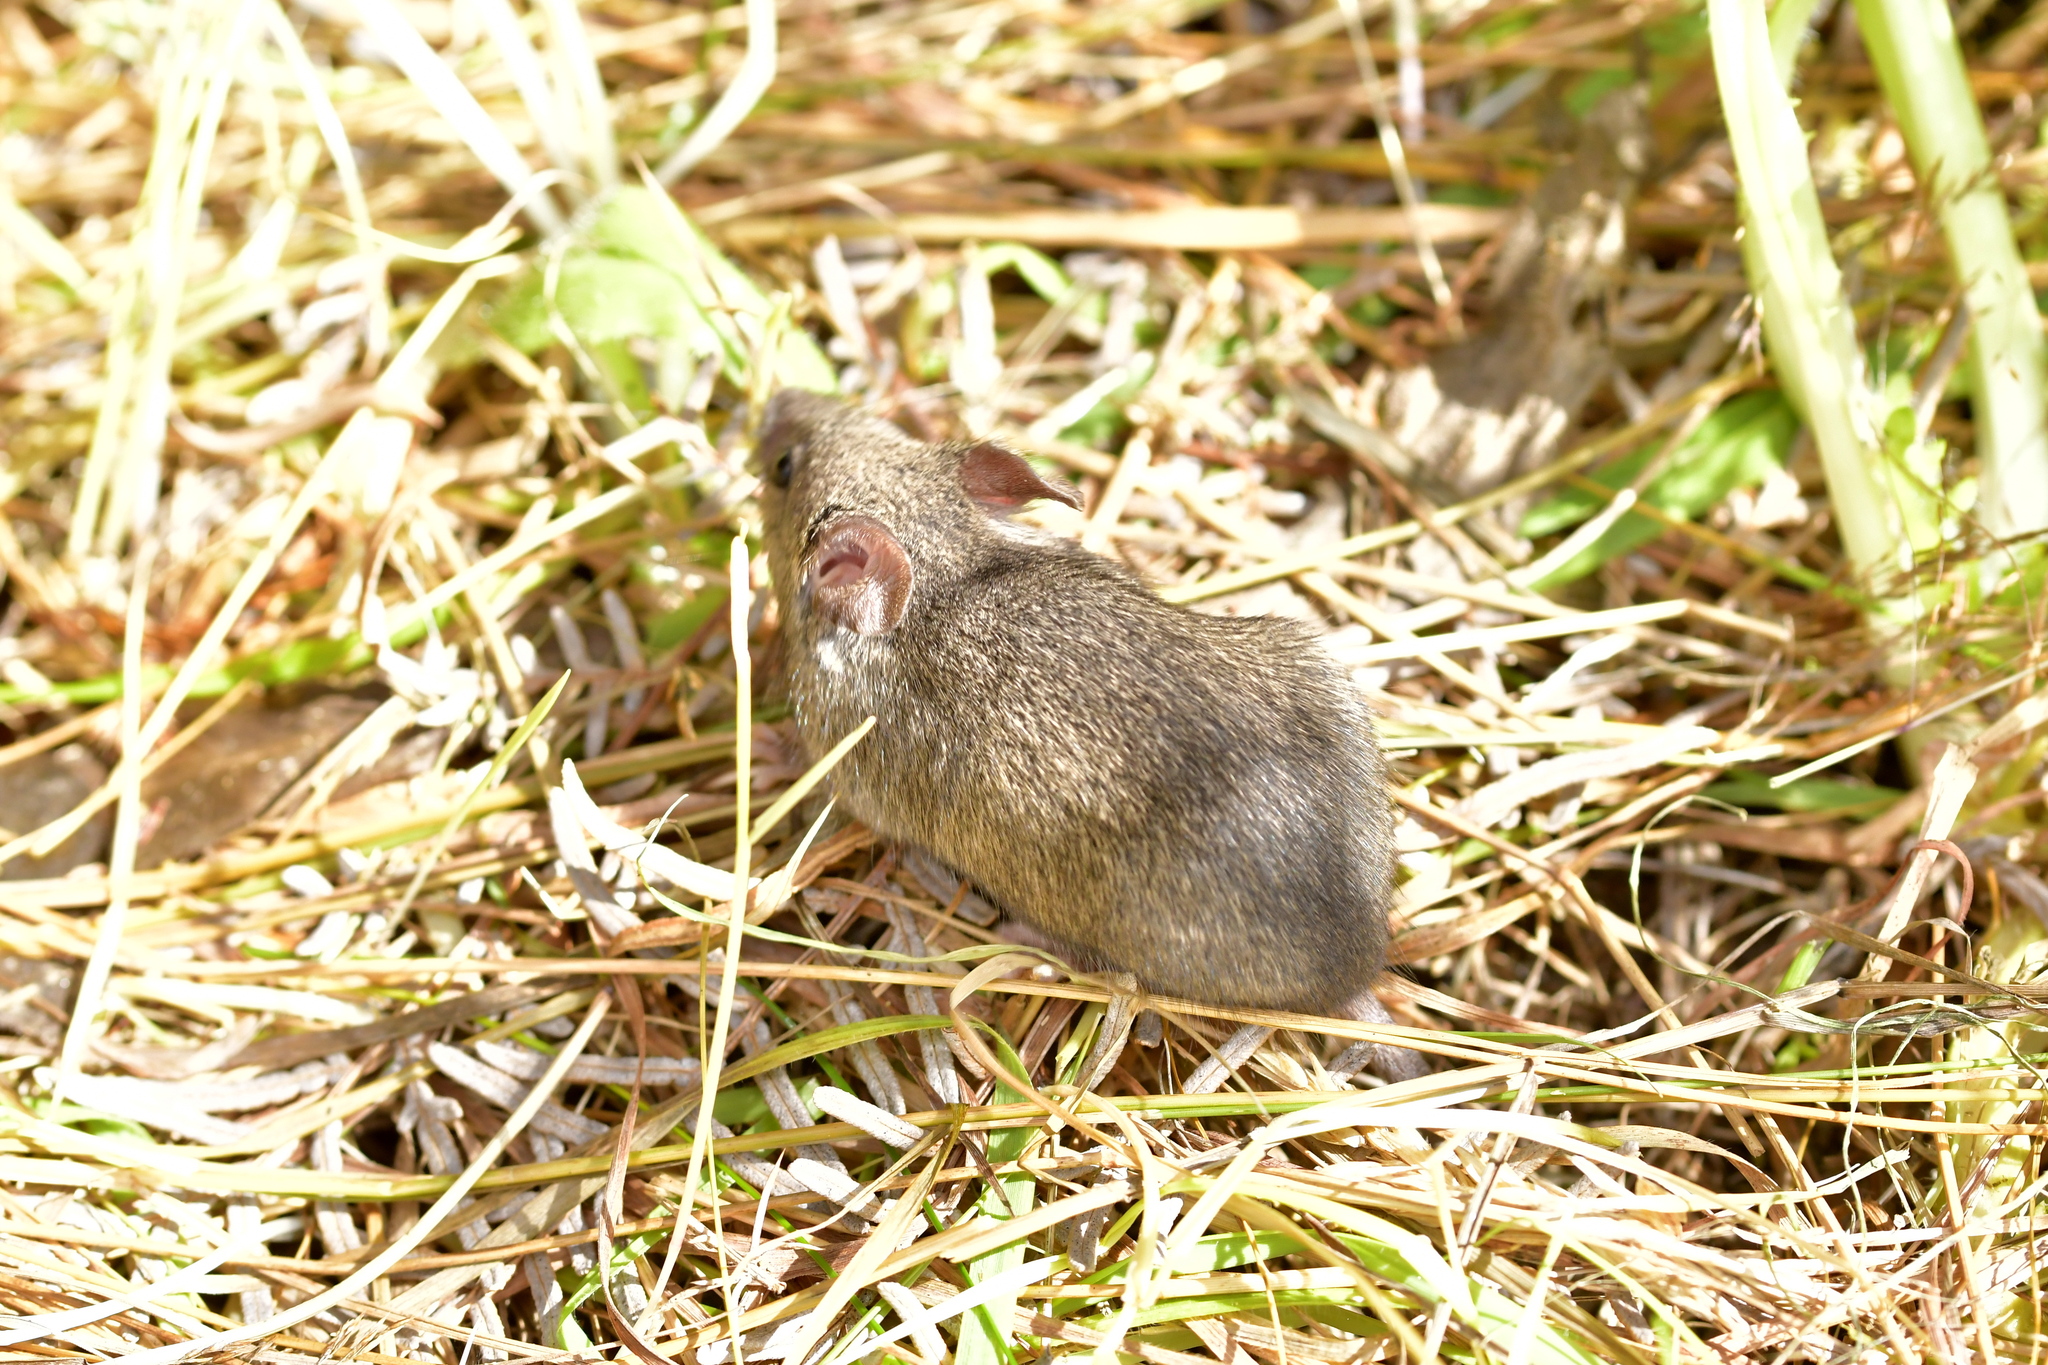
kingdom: Animalia
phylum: Chordata
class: Mammalia
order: Rodentia
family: Muridae
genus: Mus
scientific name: Mus musculus
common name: House mouse
